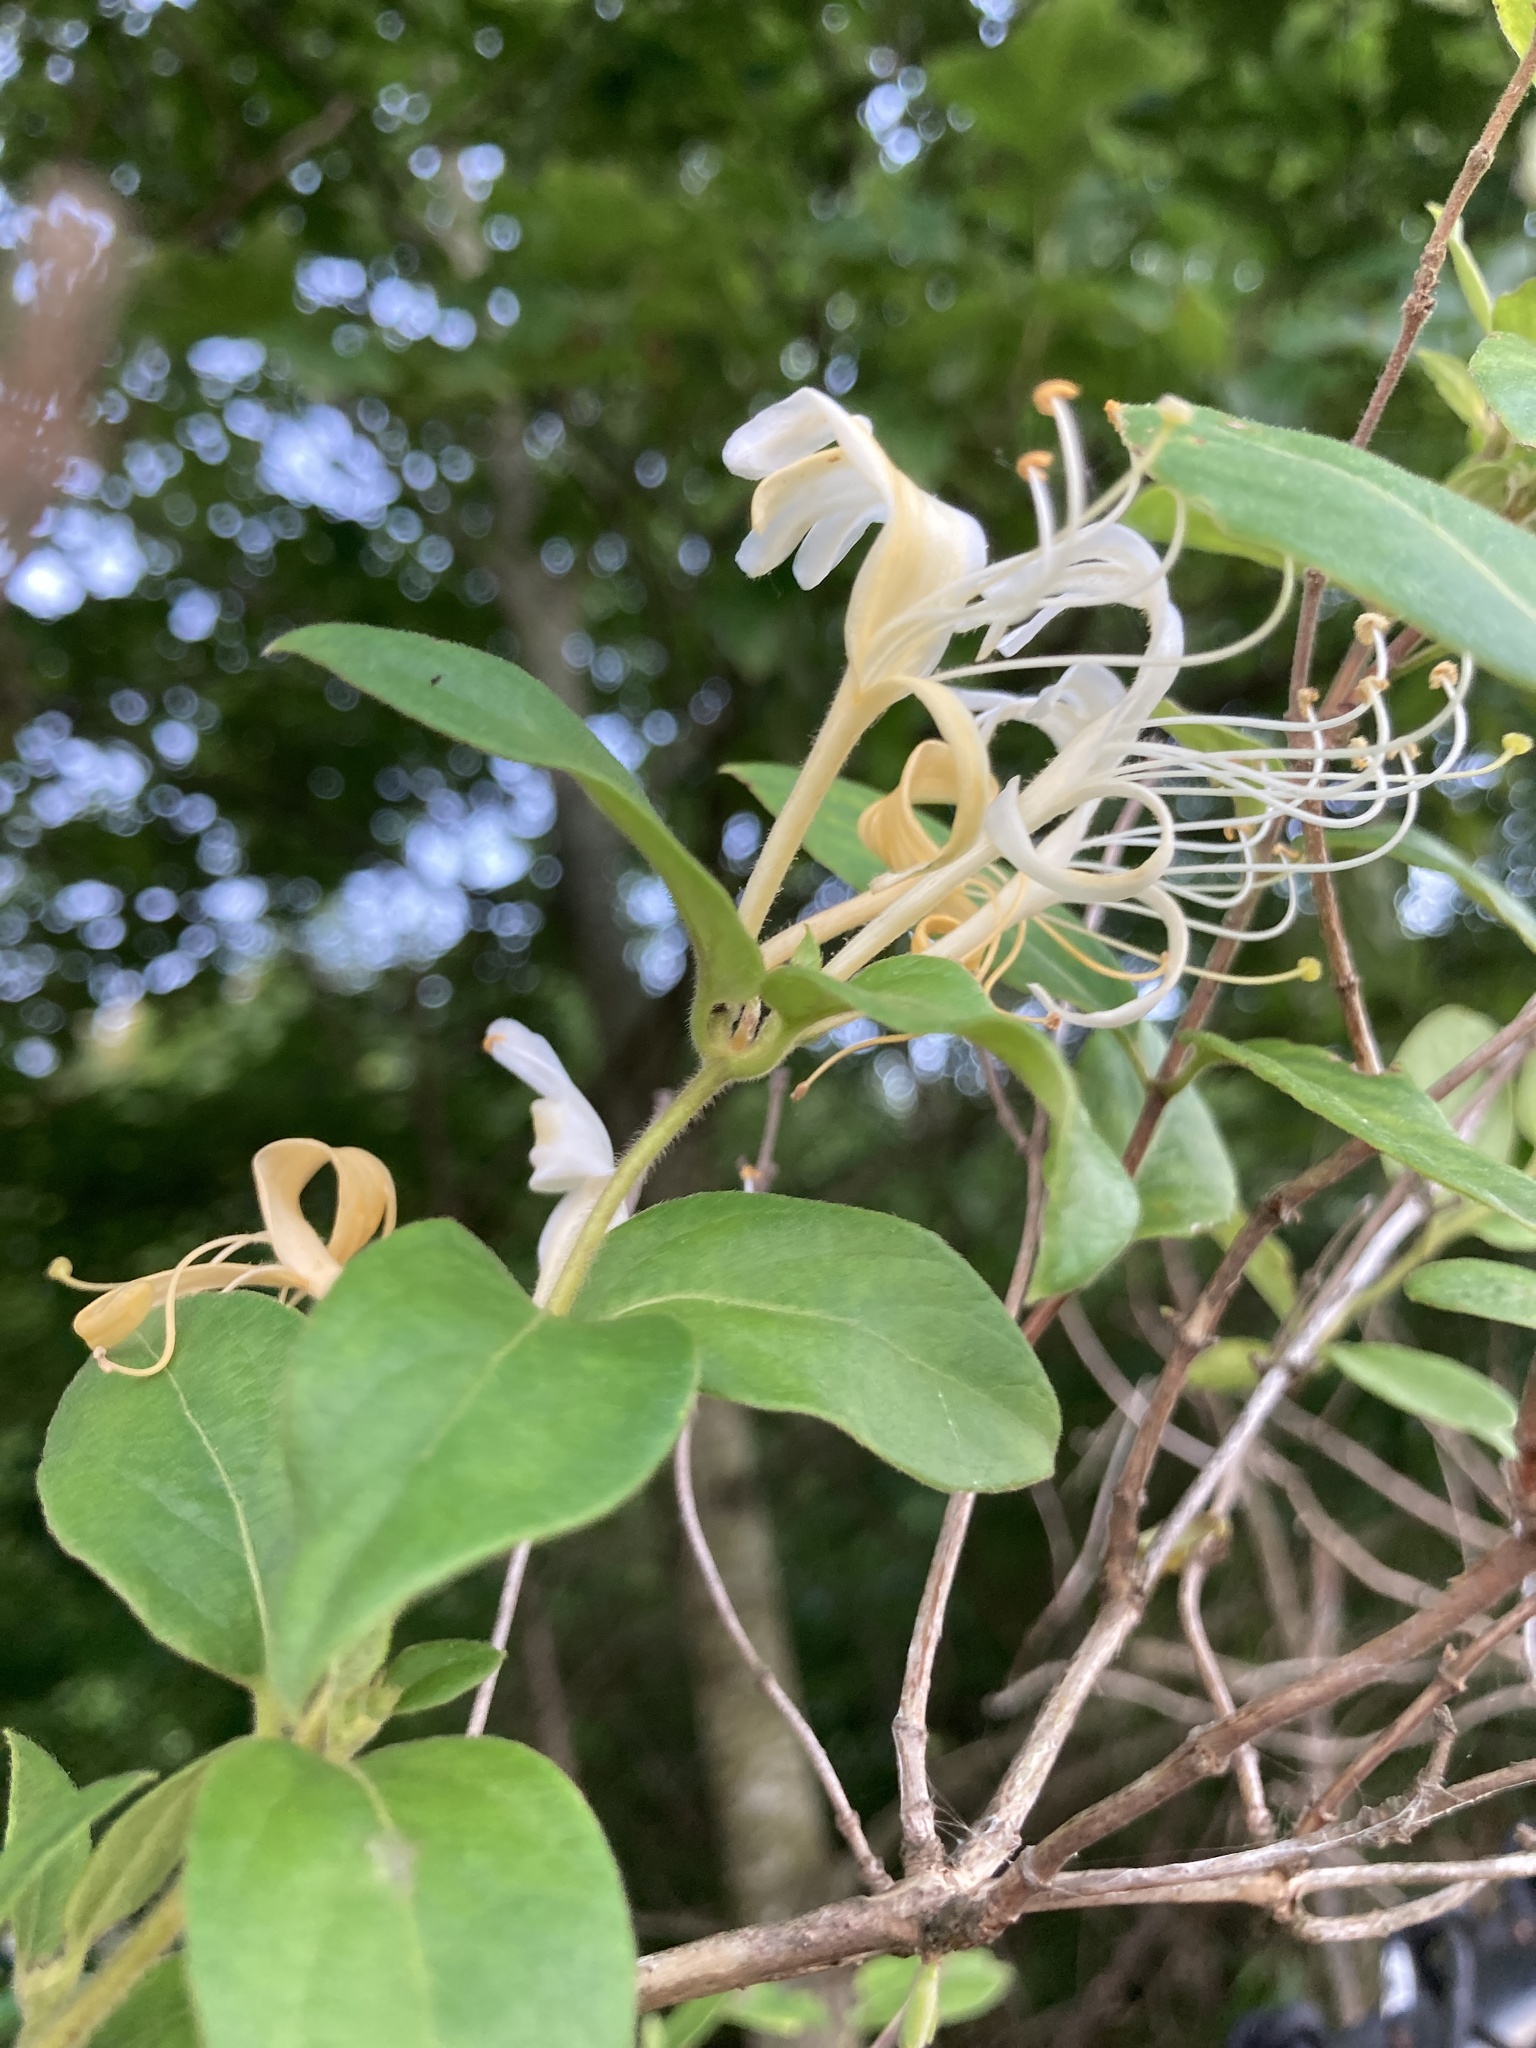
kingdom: Plantae
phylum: Tracheophyta
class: Magnoliopsida
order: Dipsacales
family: Caprifoliaceae
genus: Lonicera
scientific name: Lonicera japonica
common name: Japanese honeysuckle
